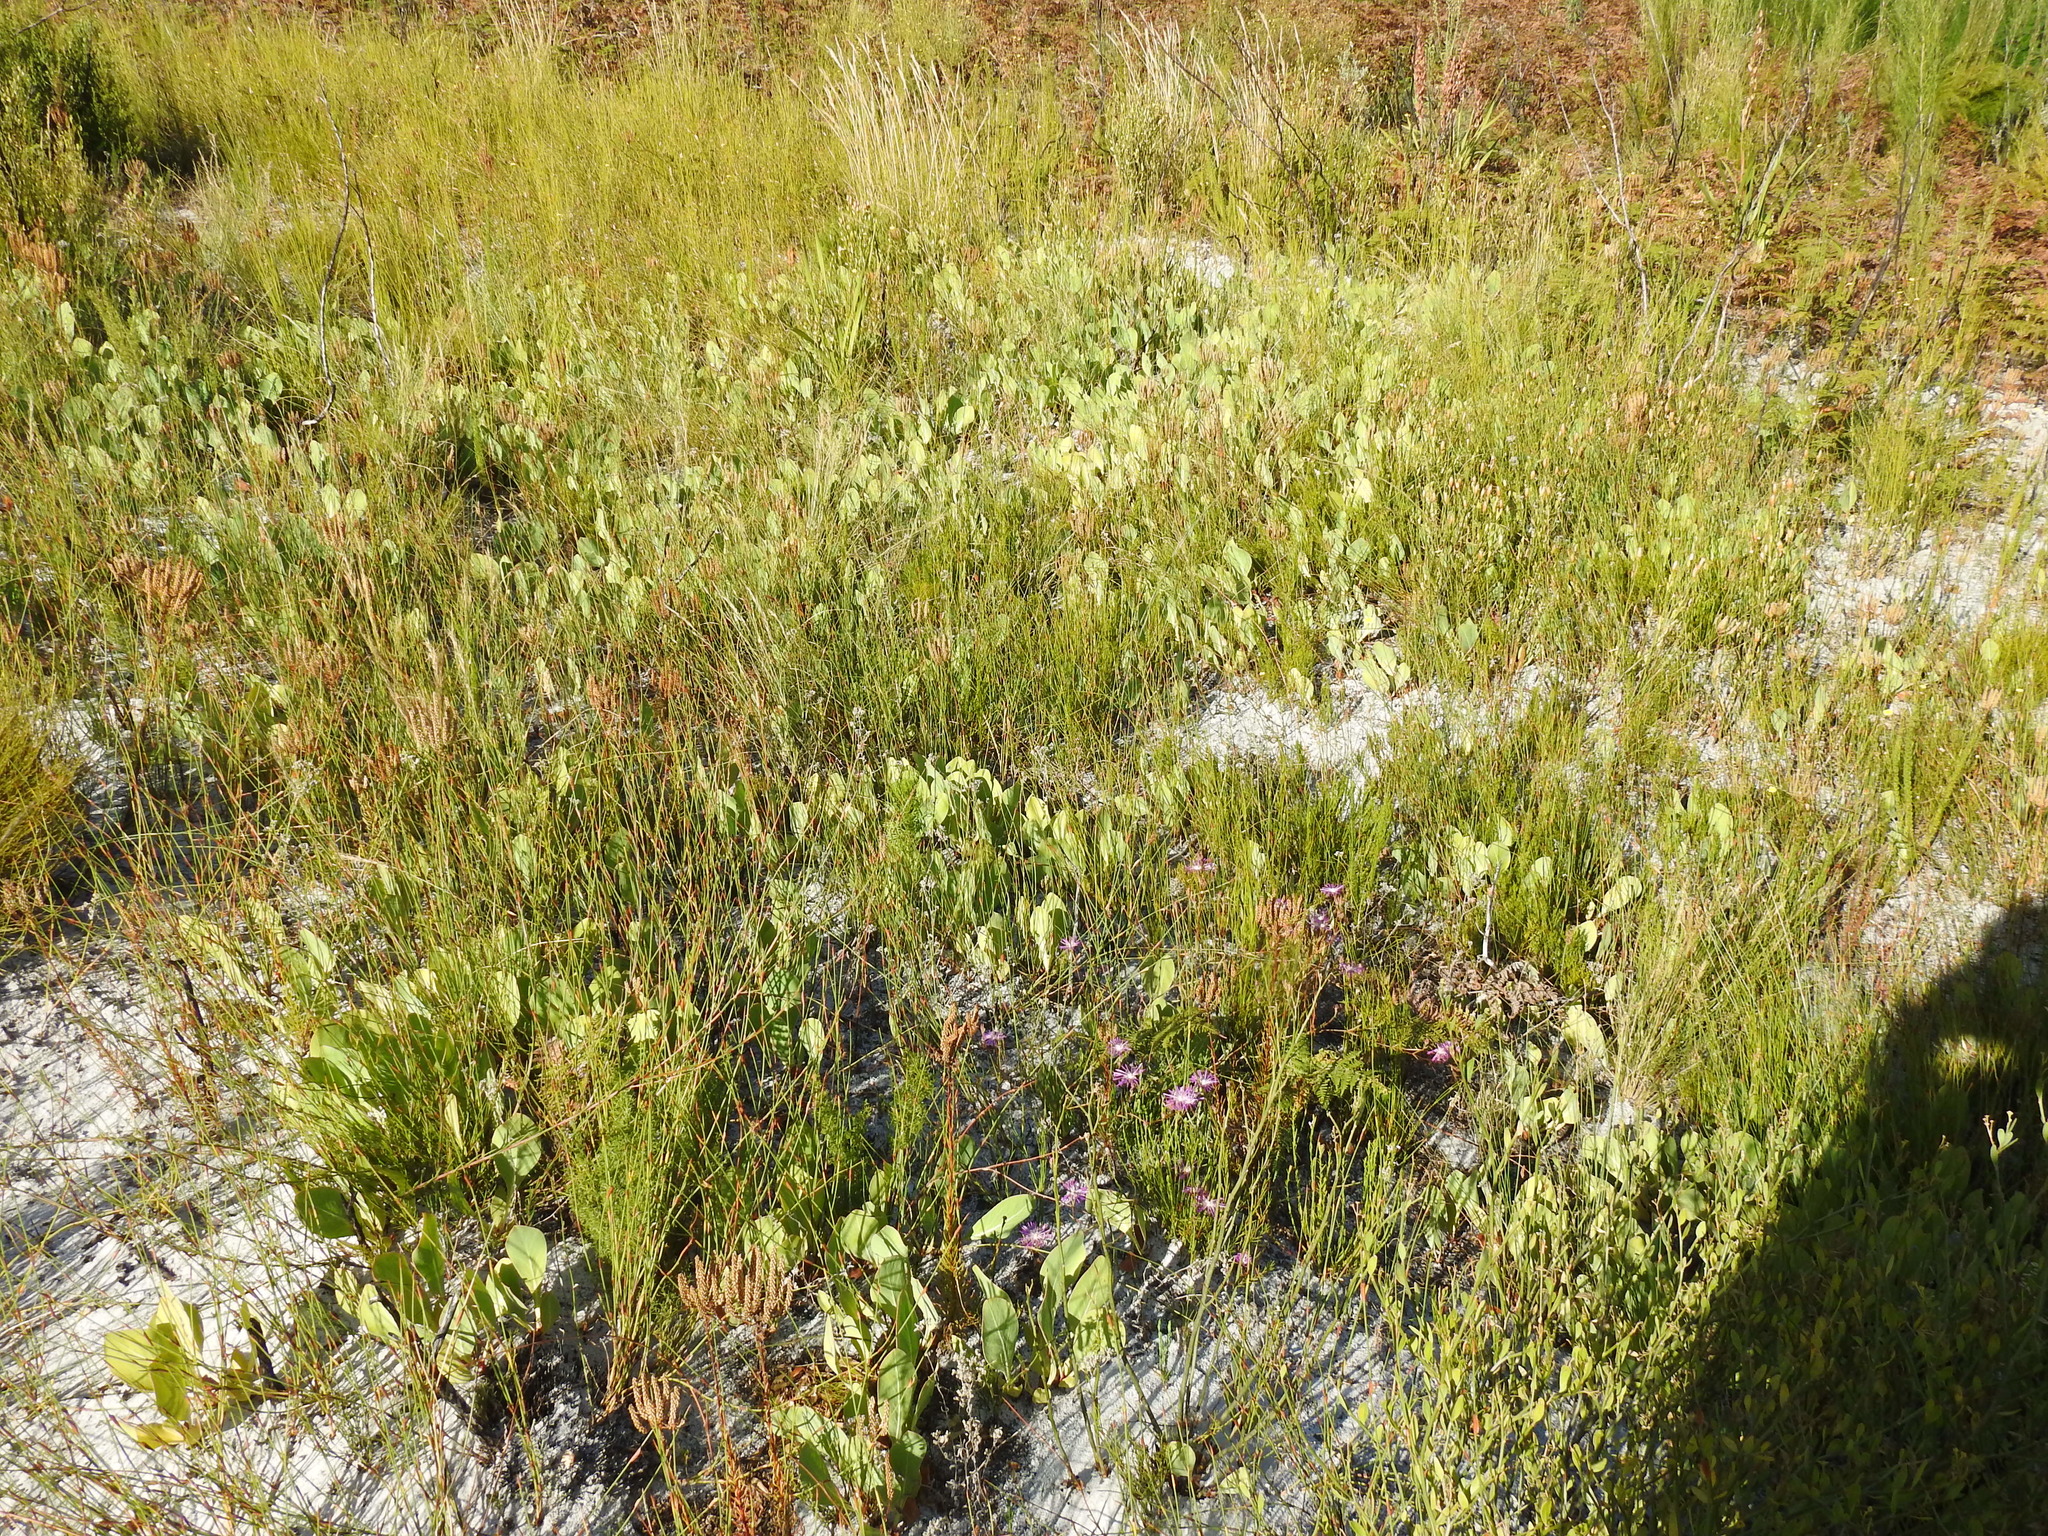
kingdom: Plantae
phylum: Tracheophyta
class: Magnoliopsida
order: Proteales
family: Proteaceae
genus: Protea
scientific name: Protea acaulos
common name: Common ground sugarbush
